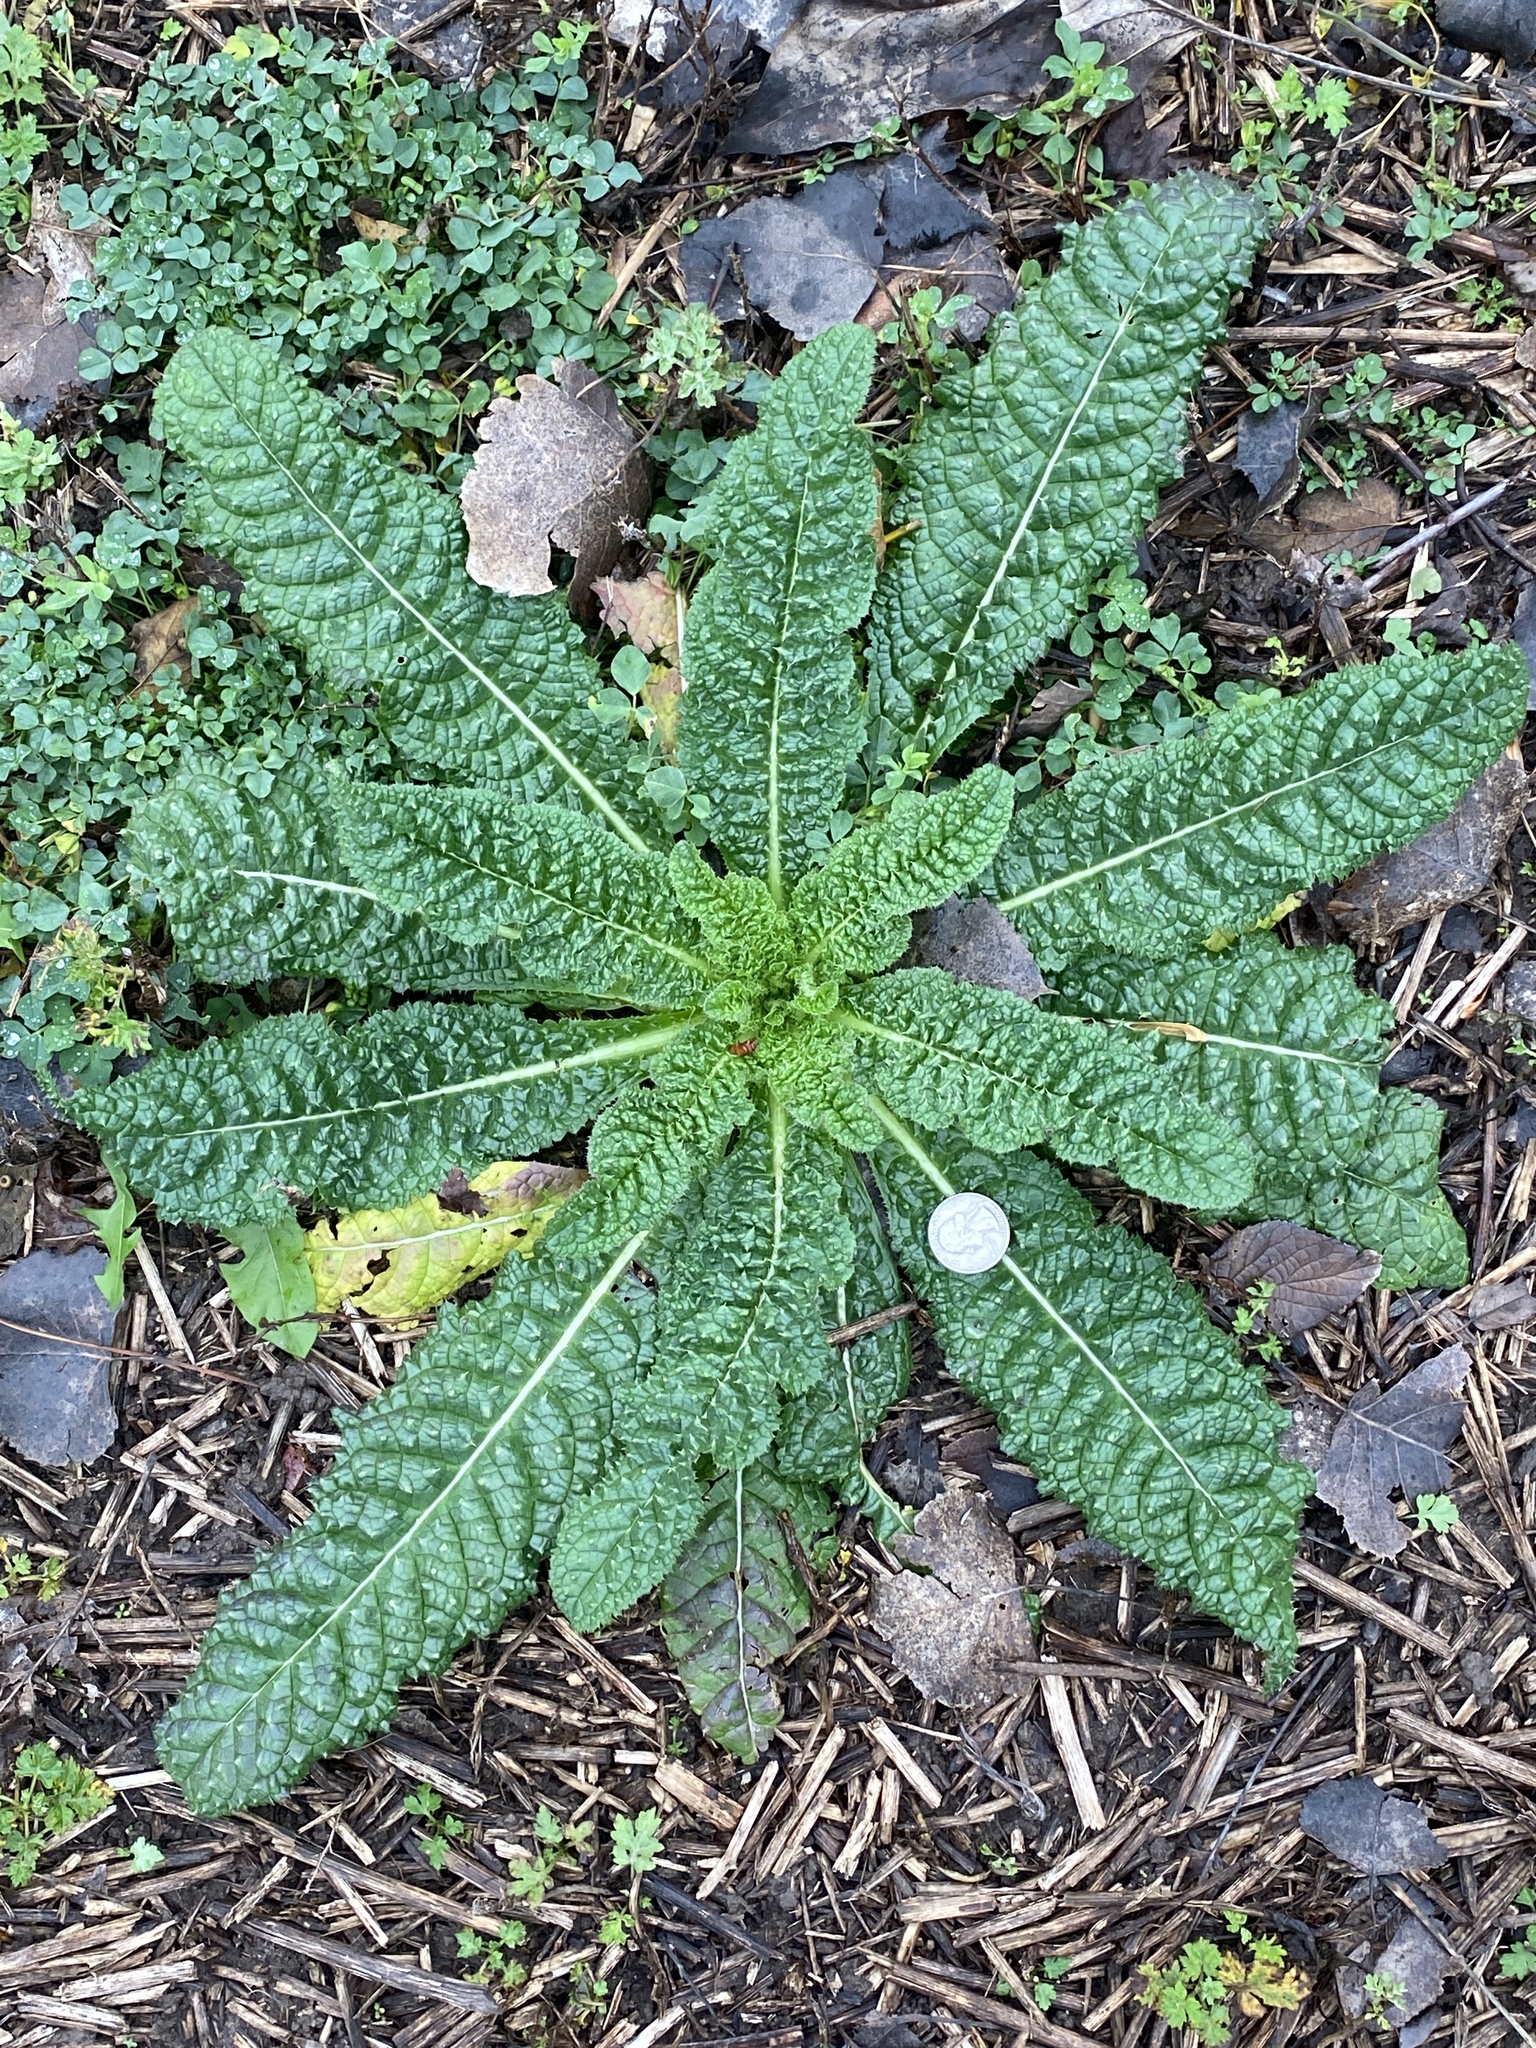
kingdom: Plantae
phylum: Tracheophyta
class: Magnoliopsida
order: Dipsacales
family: Caprifoliaceae
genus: Dipsacus
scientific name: Dipsacus fullonum
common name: Teasel
